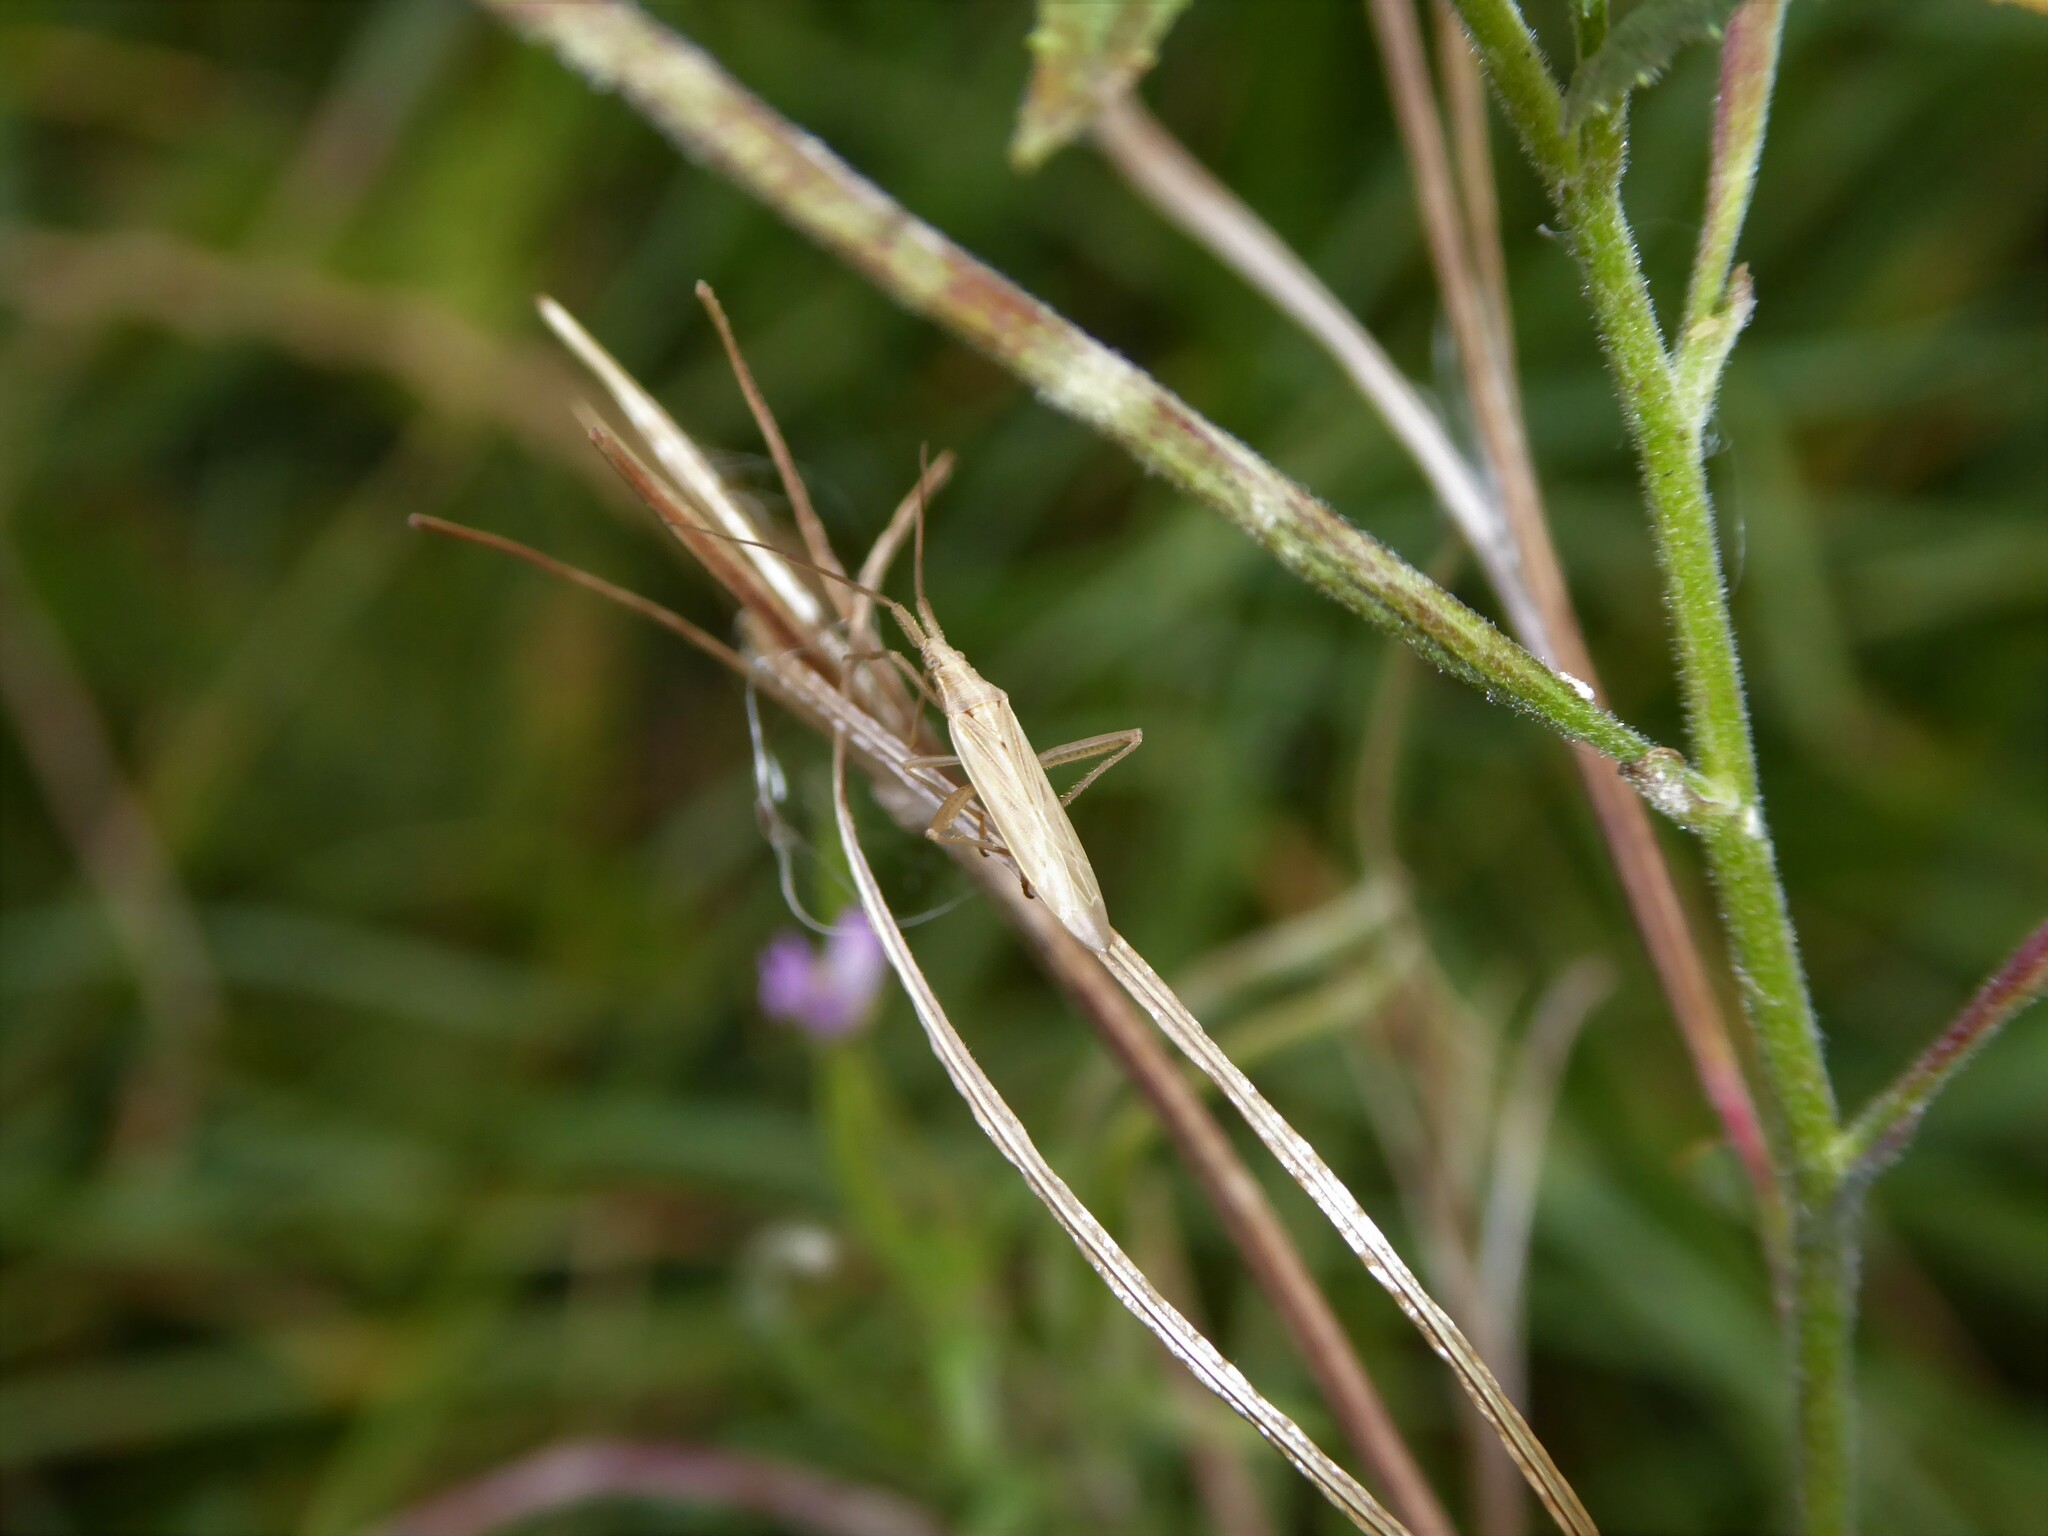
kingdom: Animalia
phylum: Arthropoda
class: Insecta
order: Hemiptera
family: Miridae
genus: Stenodema
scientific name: Stenodema laevigata
